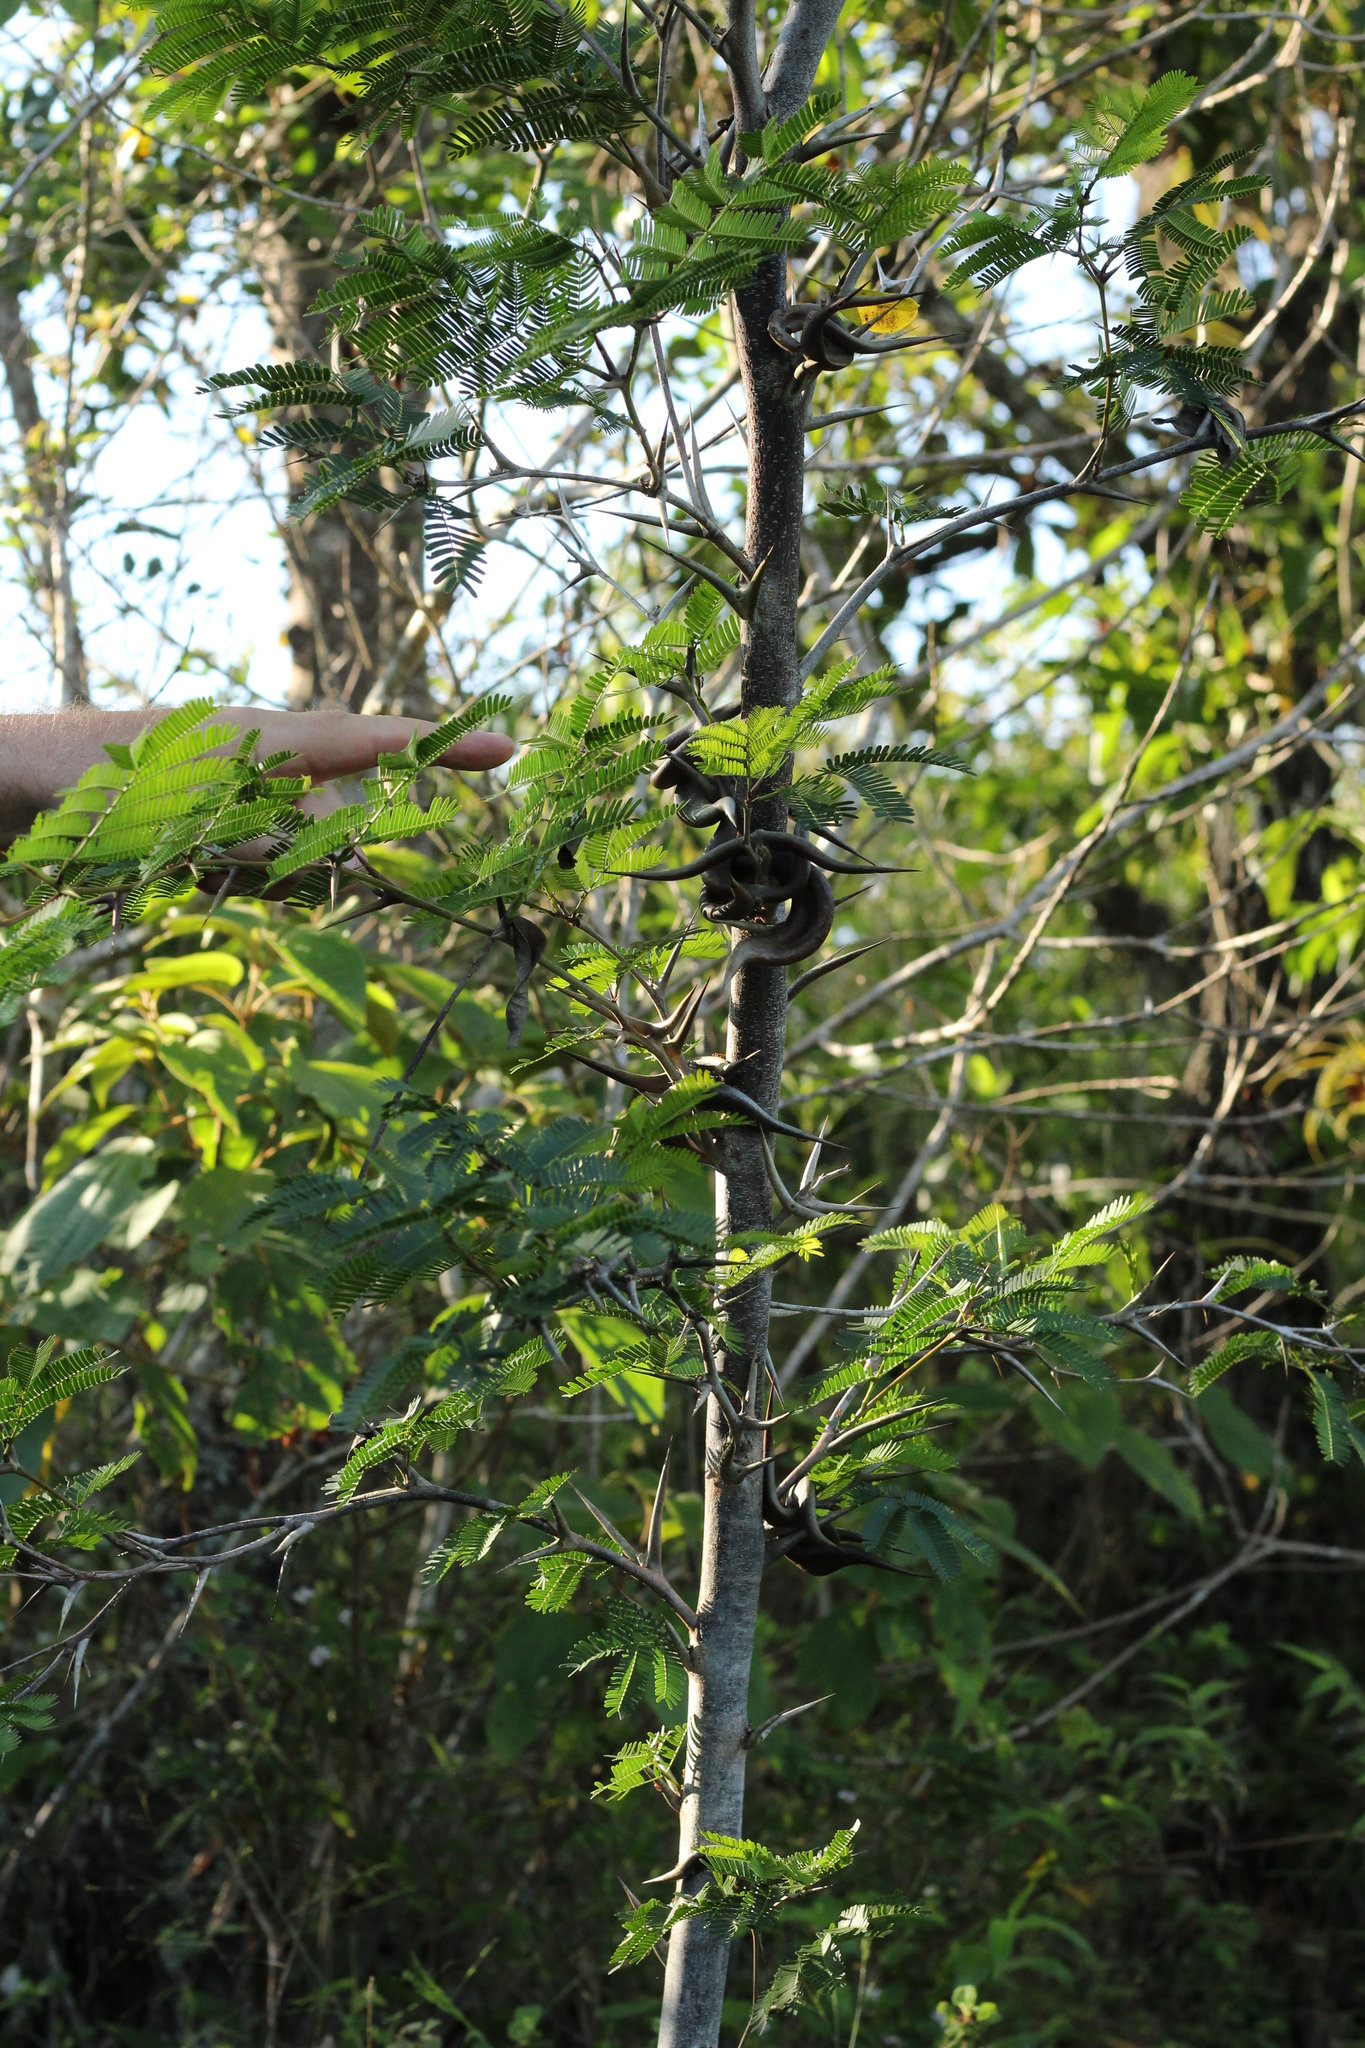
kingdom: Plantae
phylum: Tracheophyta
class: Magnoliopsida
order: Fabales
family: Fabaceae
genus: Vachellia
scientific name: Vachellia cornigera
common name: Bullhorn wattle
